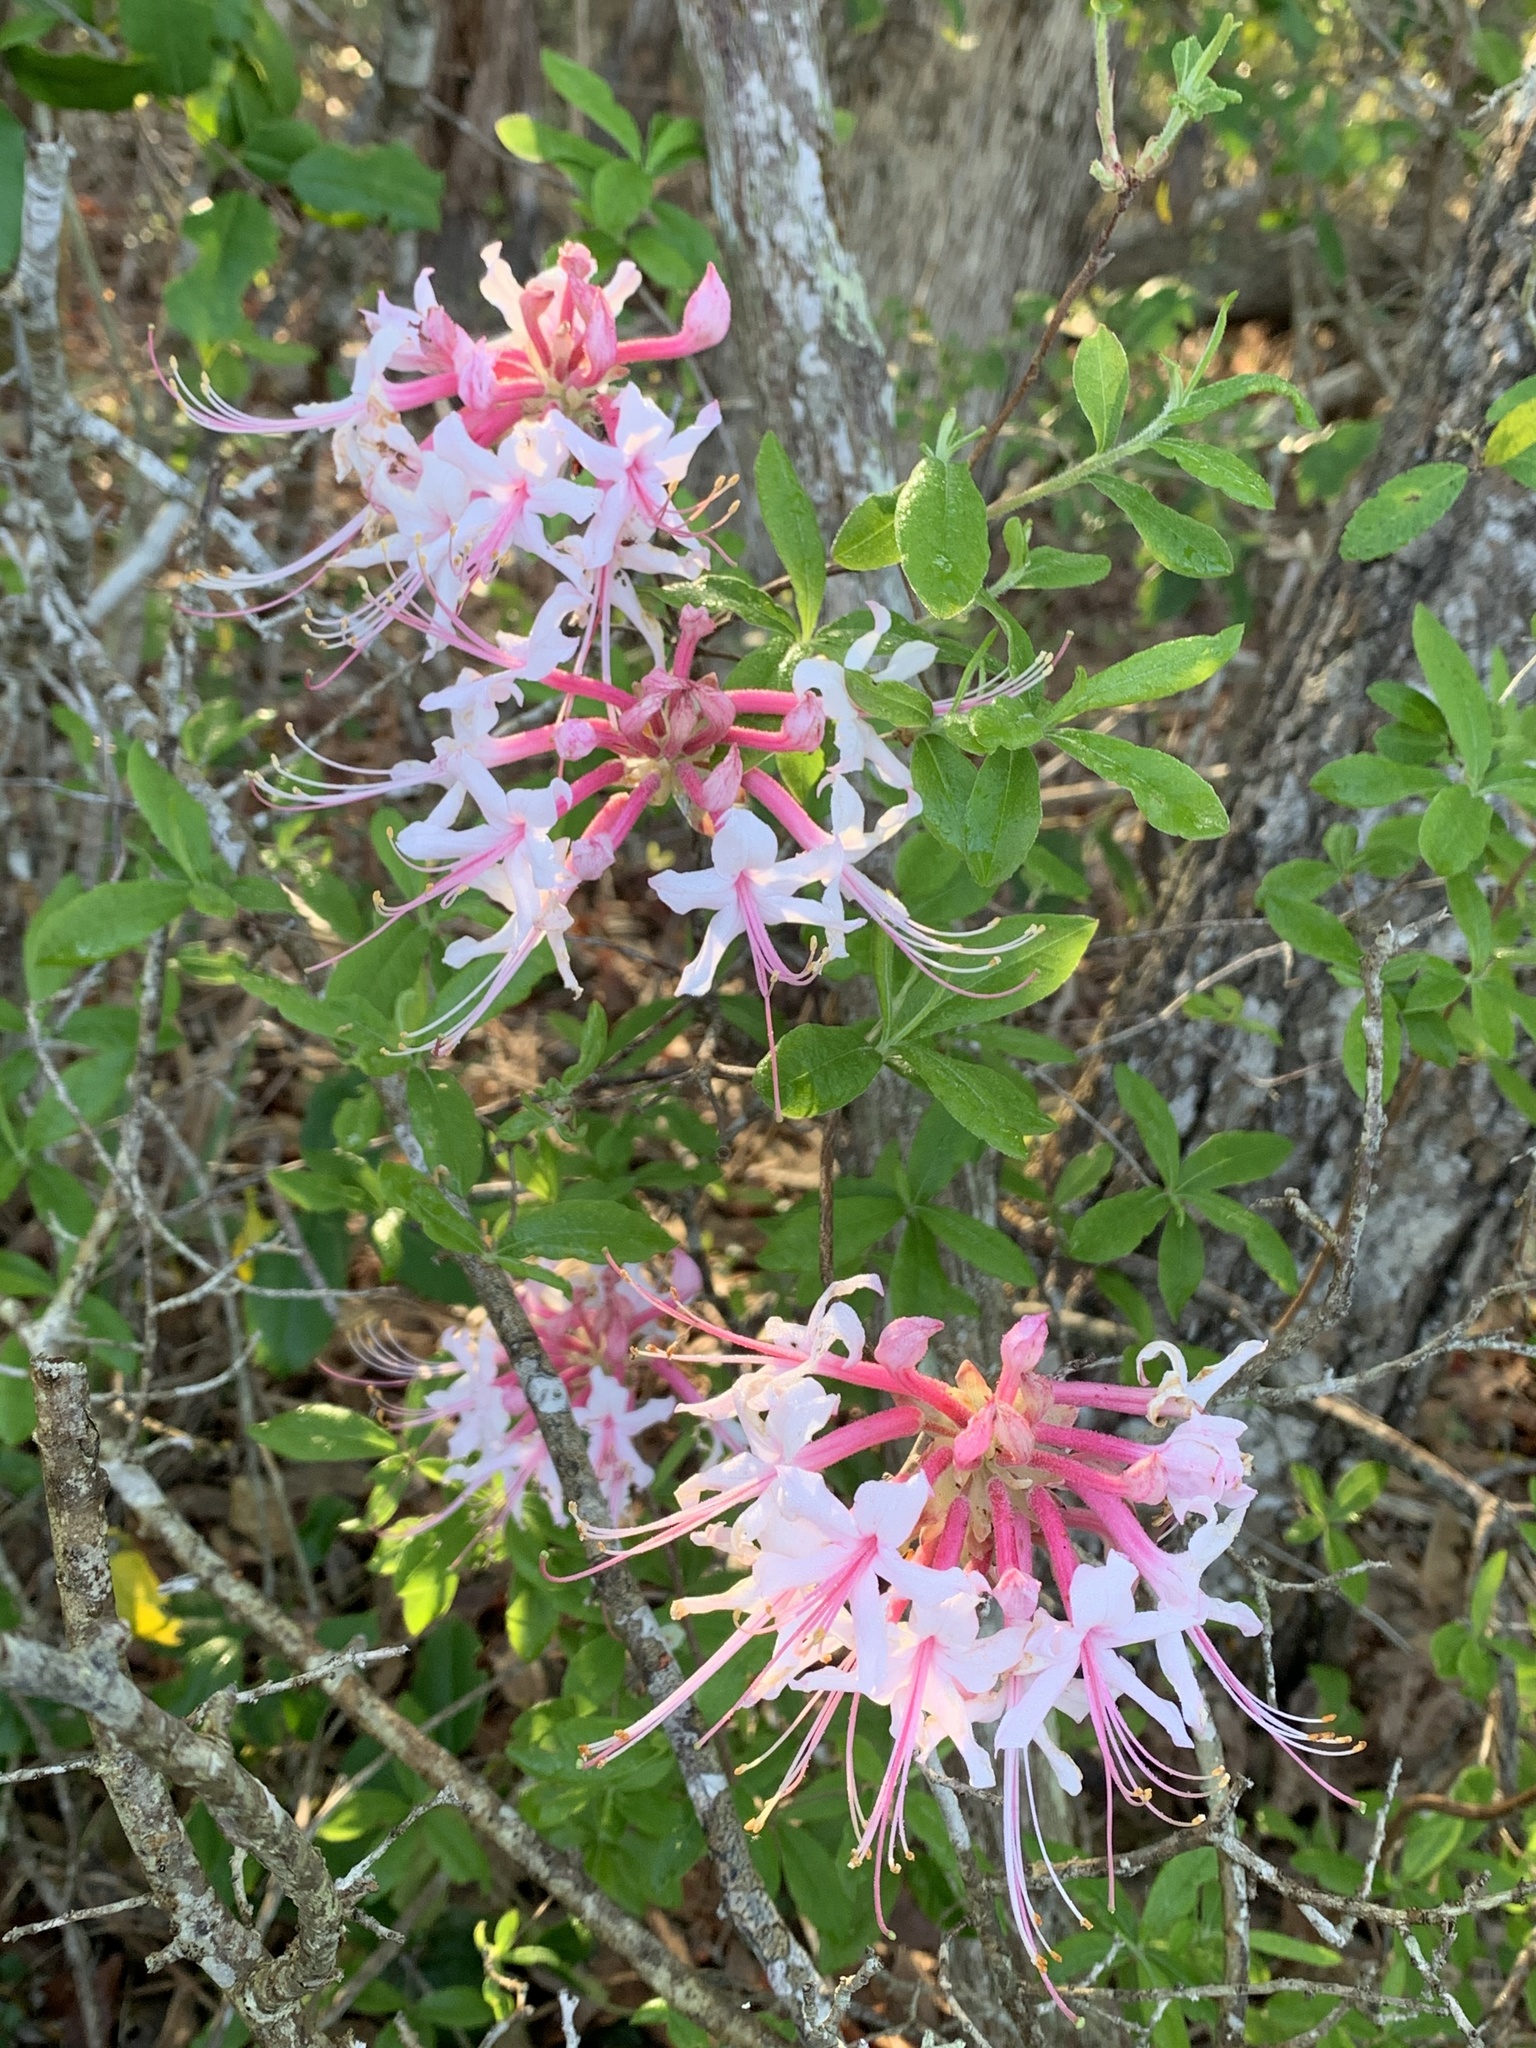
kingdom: Plantae
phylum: Tracheophyta
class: Magnoliopsida
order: Ericales
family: Ericaceae
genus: Rhododendron
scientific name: Rhododendron canescens
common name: Mountain azalea
